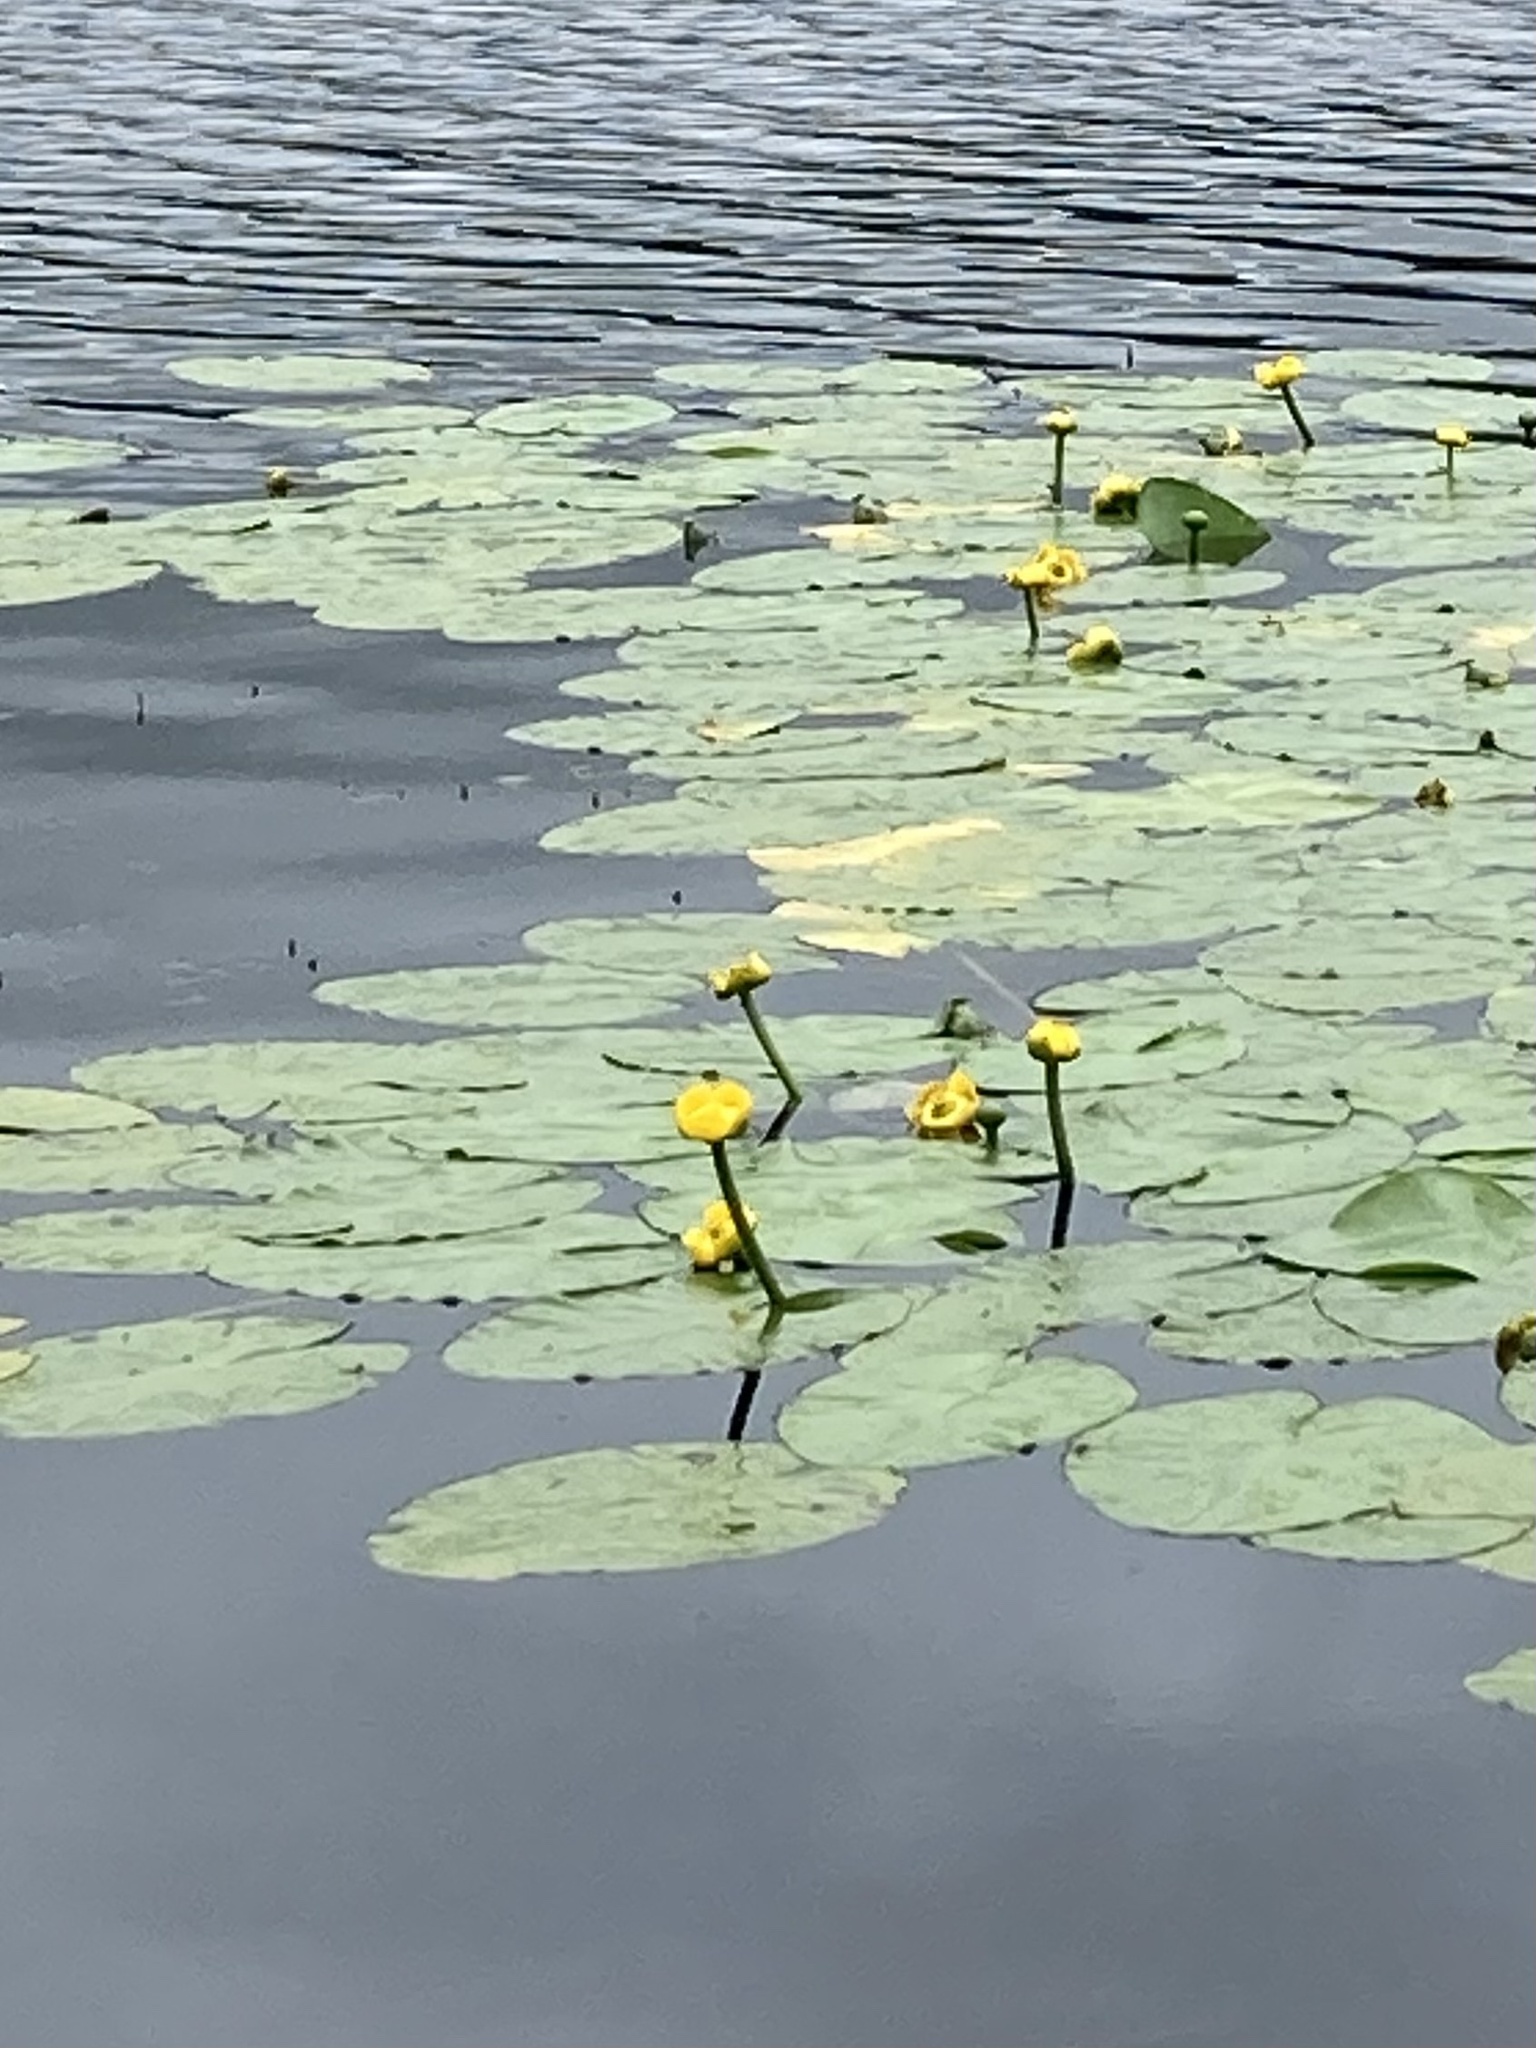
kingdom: Plantae
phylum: Tracheophyta
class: Magnoliopsida
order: Nymphaeales
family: Nymphaeaceae
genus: Nuphar
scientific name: Nuphar lutea
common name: Yellow water-lily
